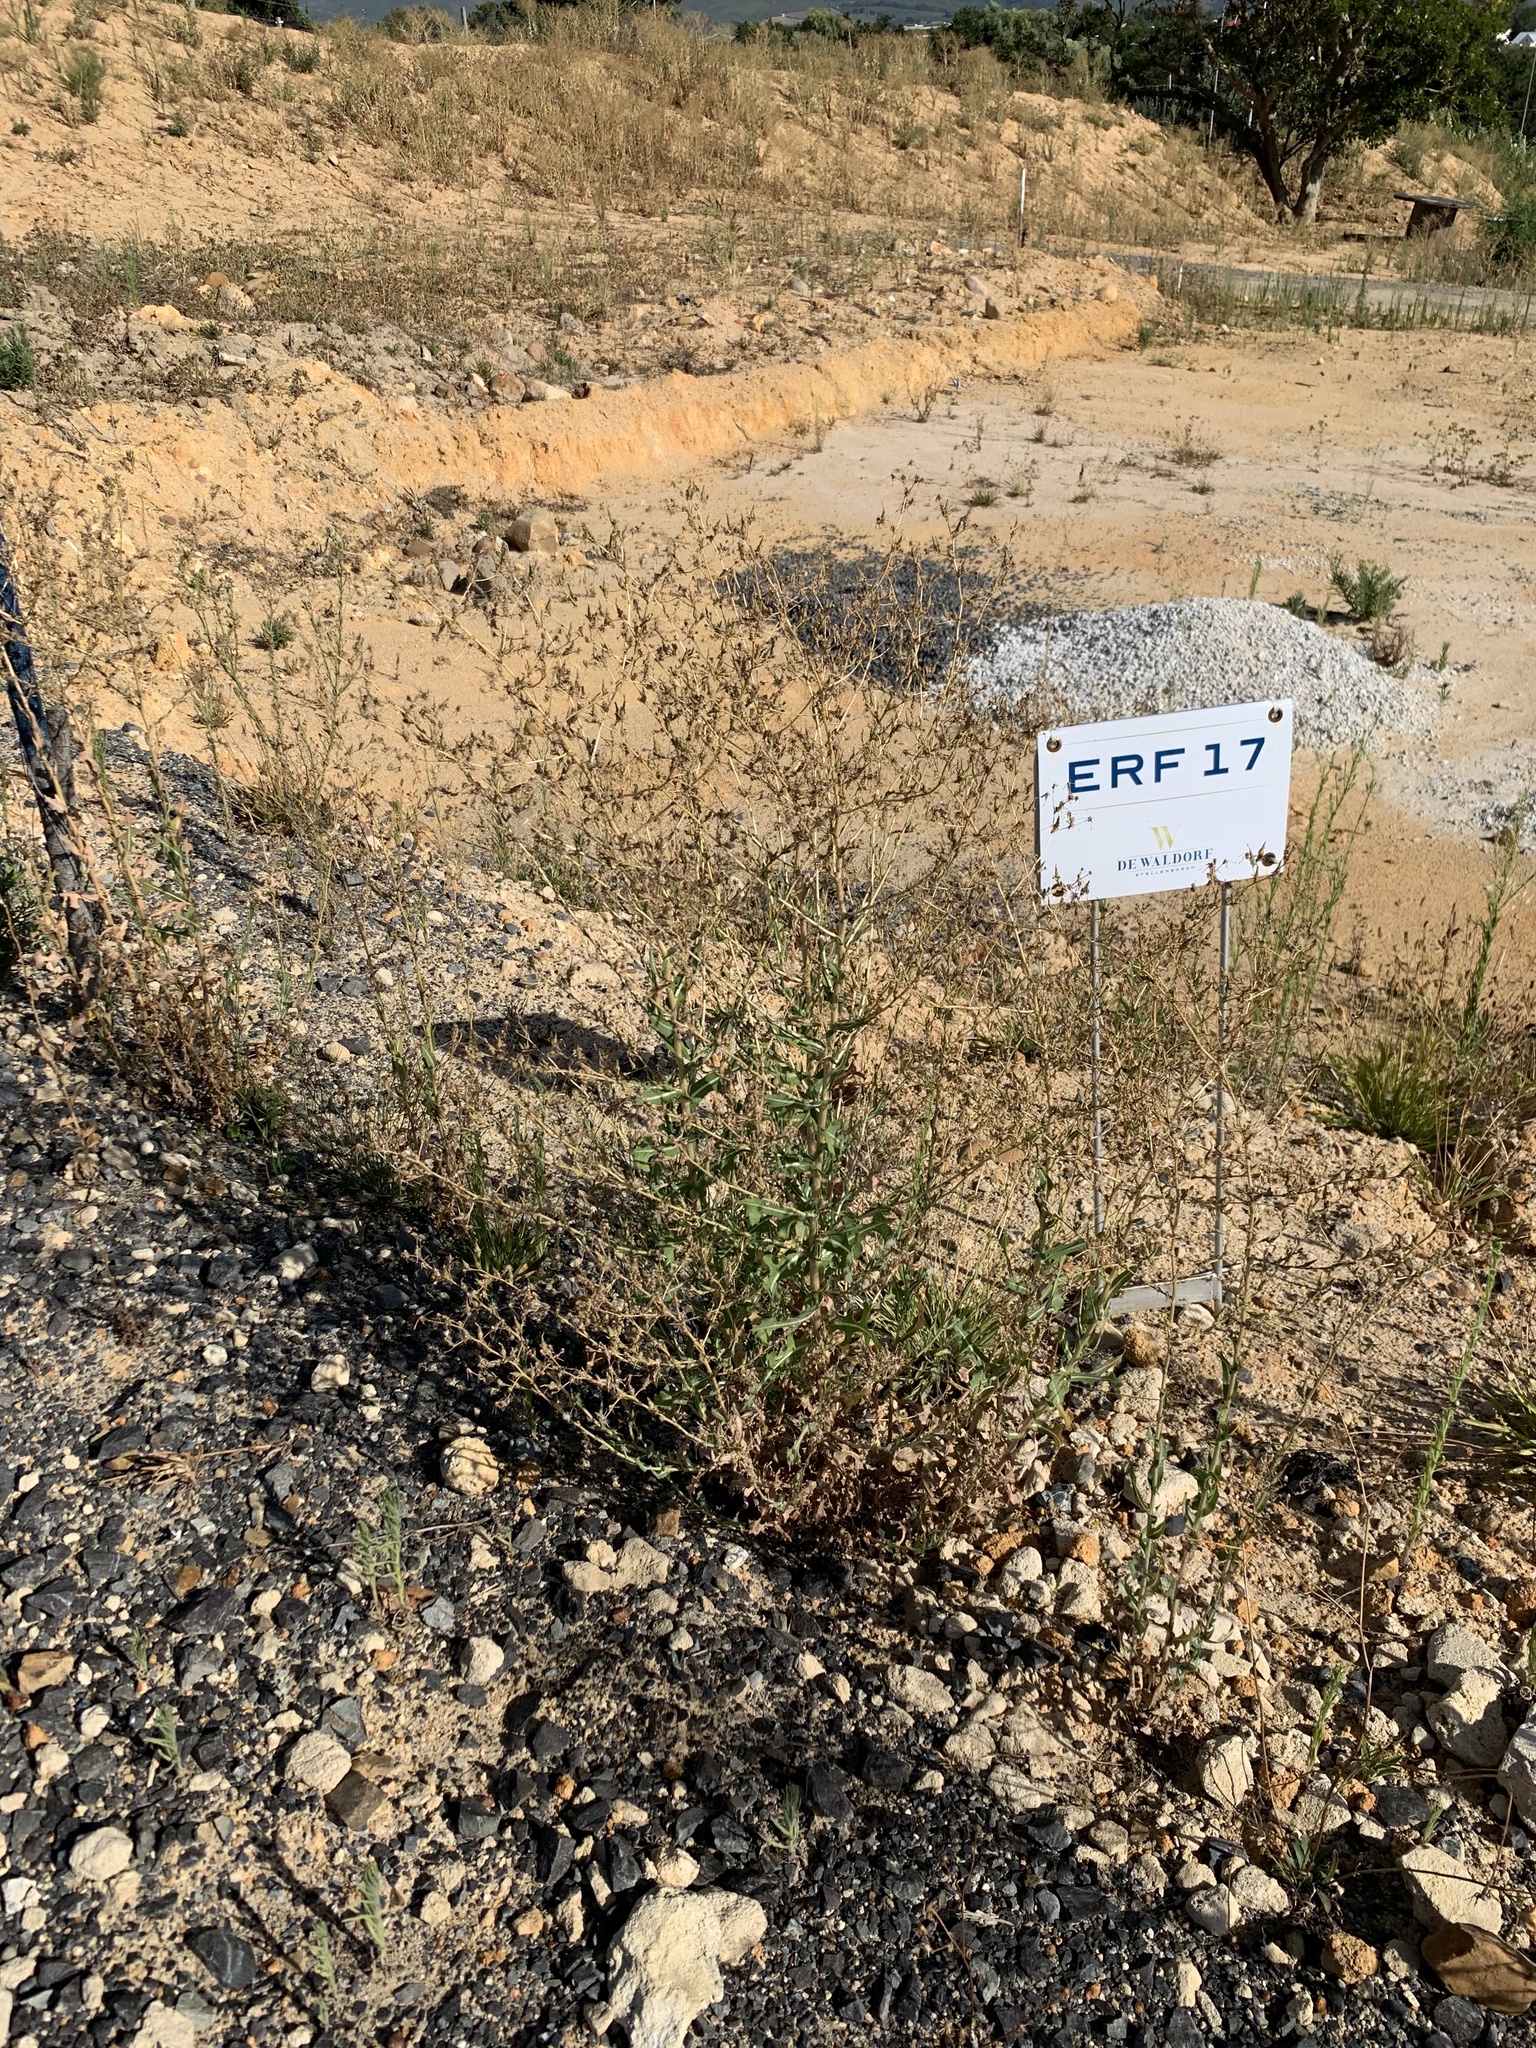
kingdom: Plantae
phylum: Tracheophyta
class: Magnoliopsida
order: Asterales
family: Asteraceae
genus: Lactuca
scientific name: Lactuca serriola
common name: Prickly lettuce
